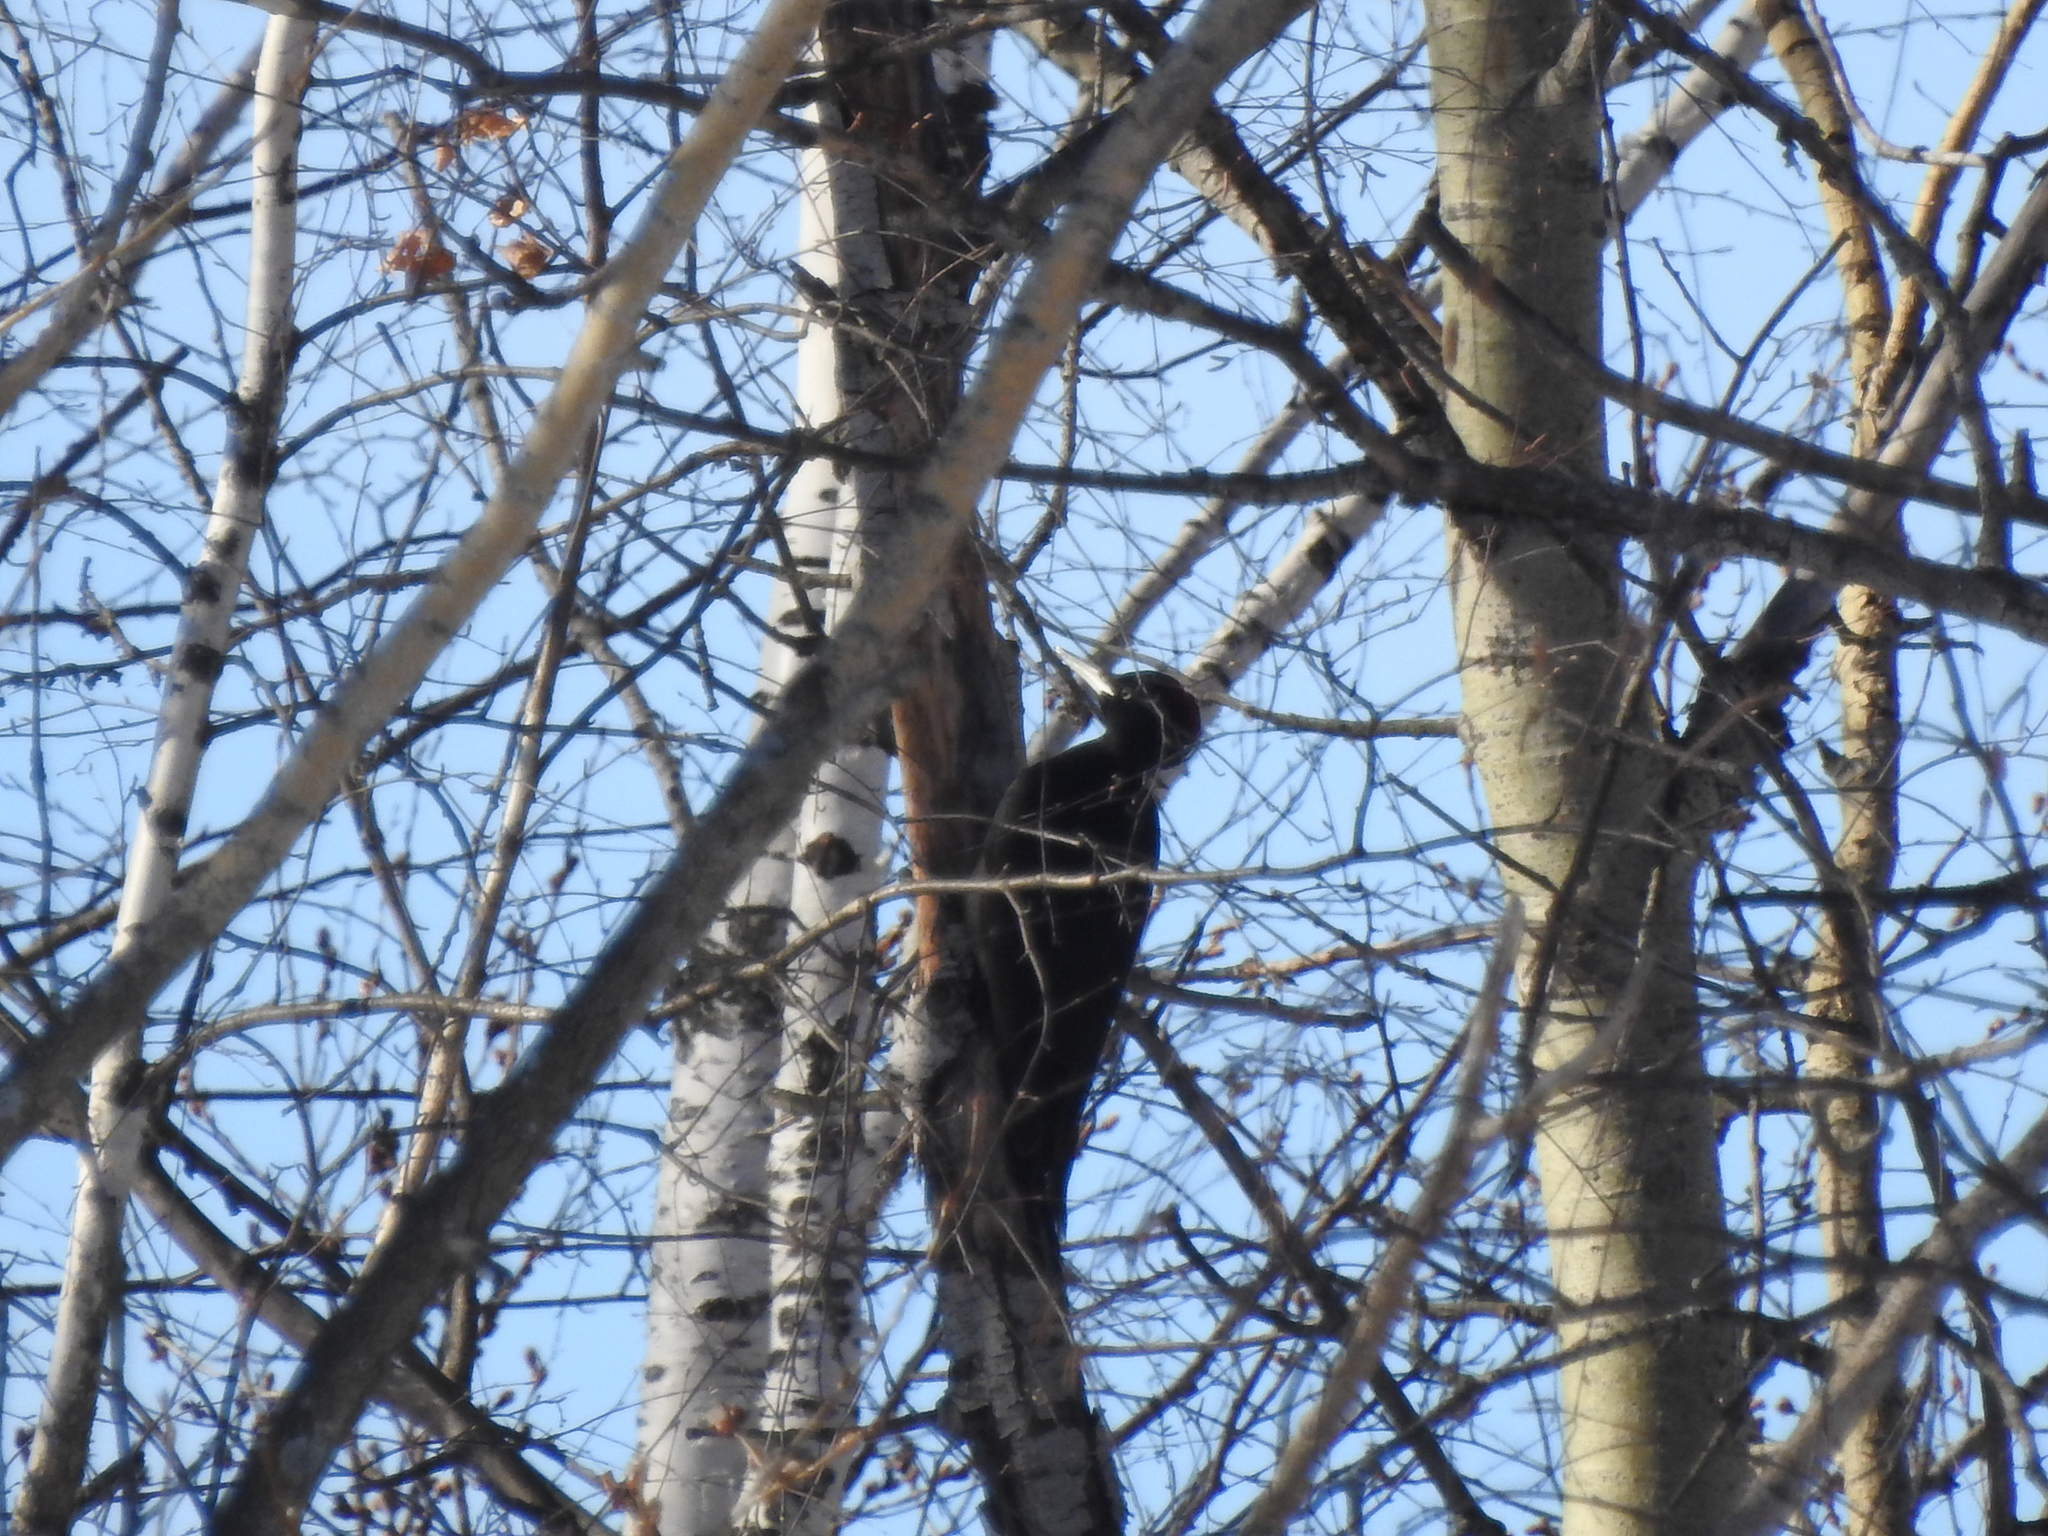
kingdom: Animalia
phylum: Chordata
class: Aves
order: Piciformes
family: Picidae
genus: Dryocopus
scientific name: Dryocopus martius
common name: Black woodpecker
